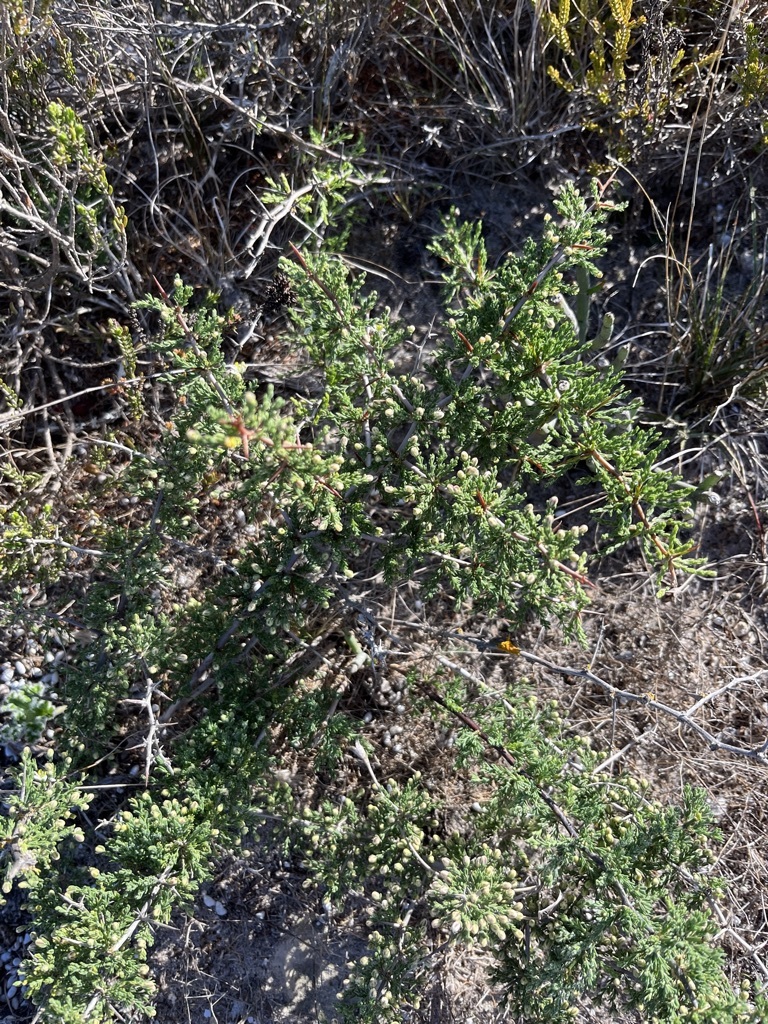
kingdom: Plantae
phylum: Tracheophyta
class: Liliopsida
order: Asparagales
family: Asparagaceae
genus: Asparagus
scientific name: Asparagus mariae
